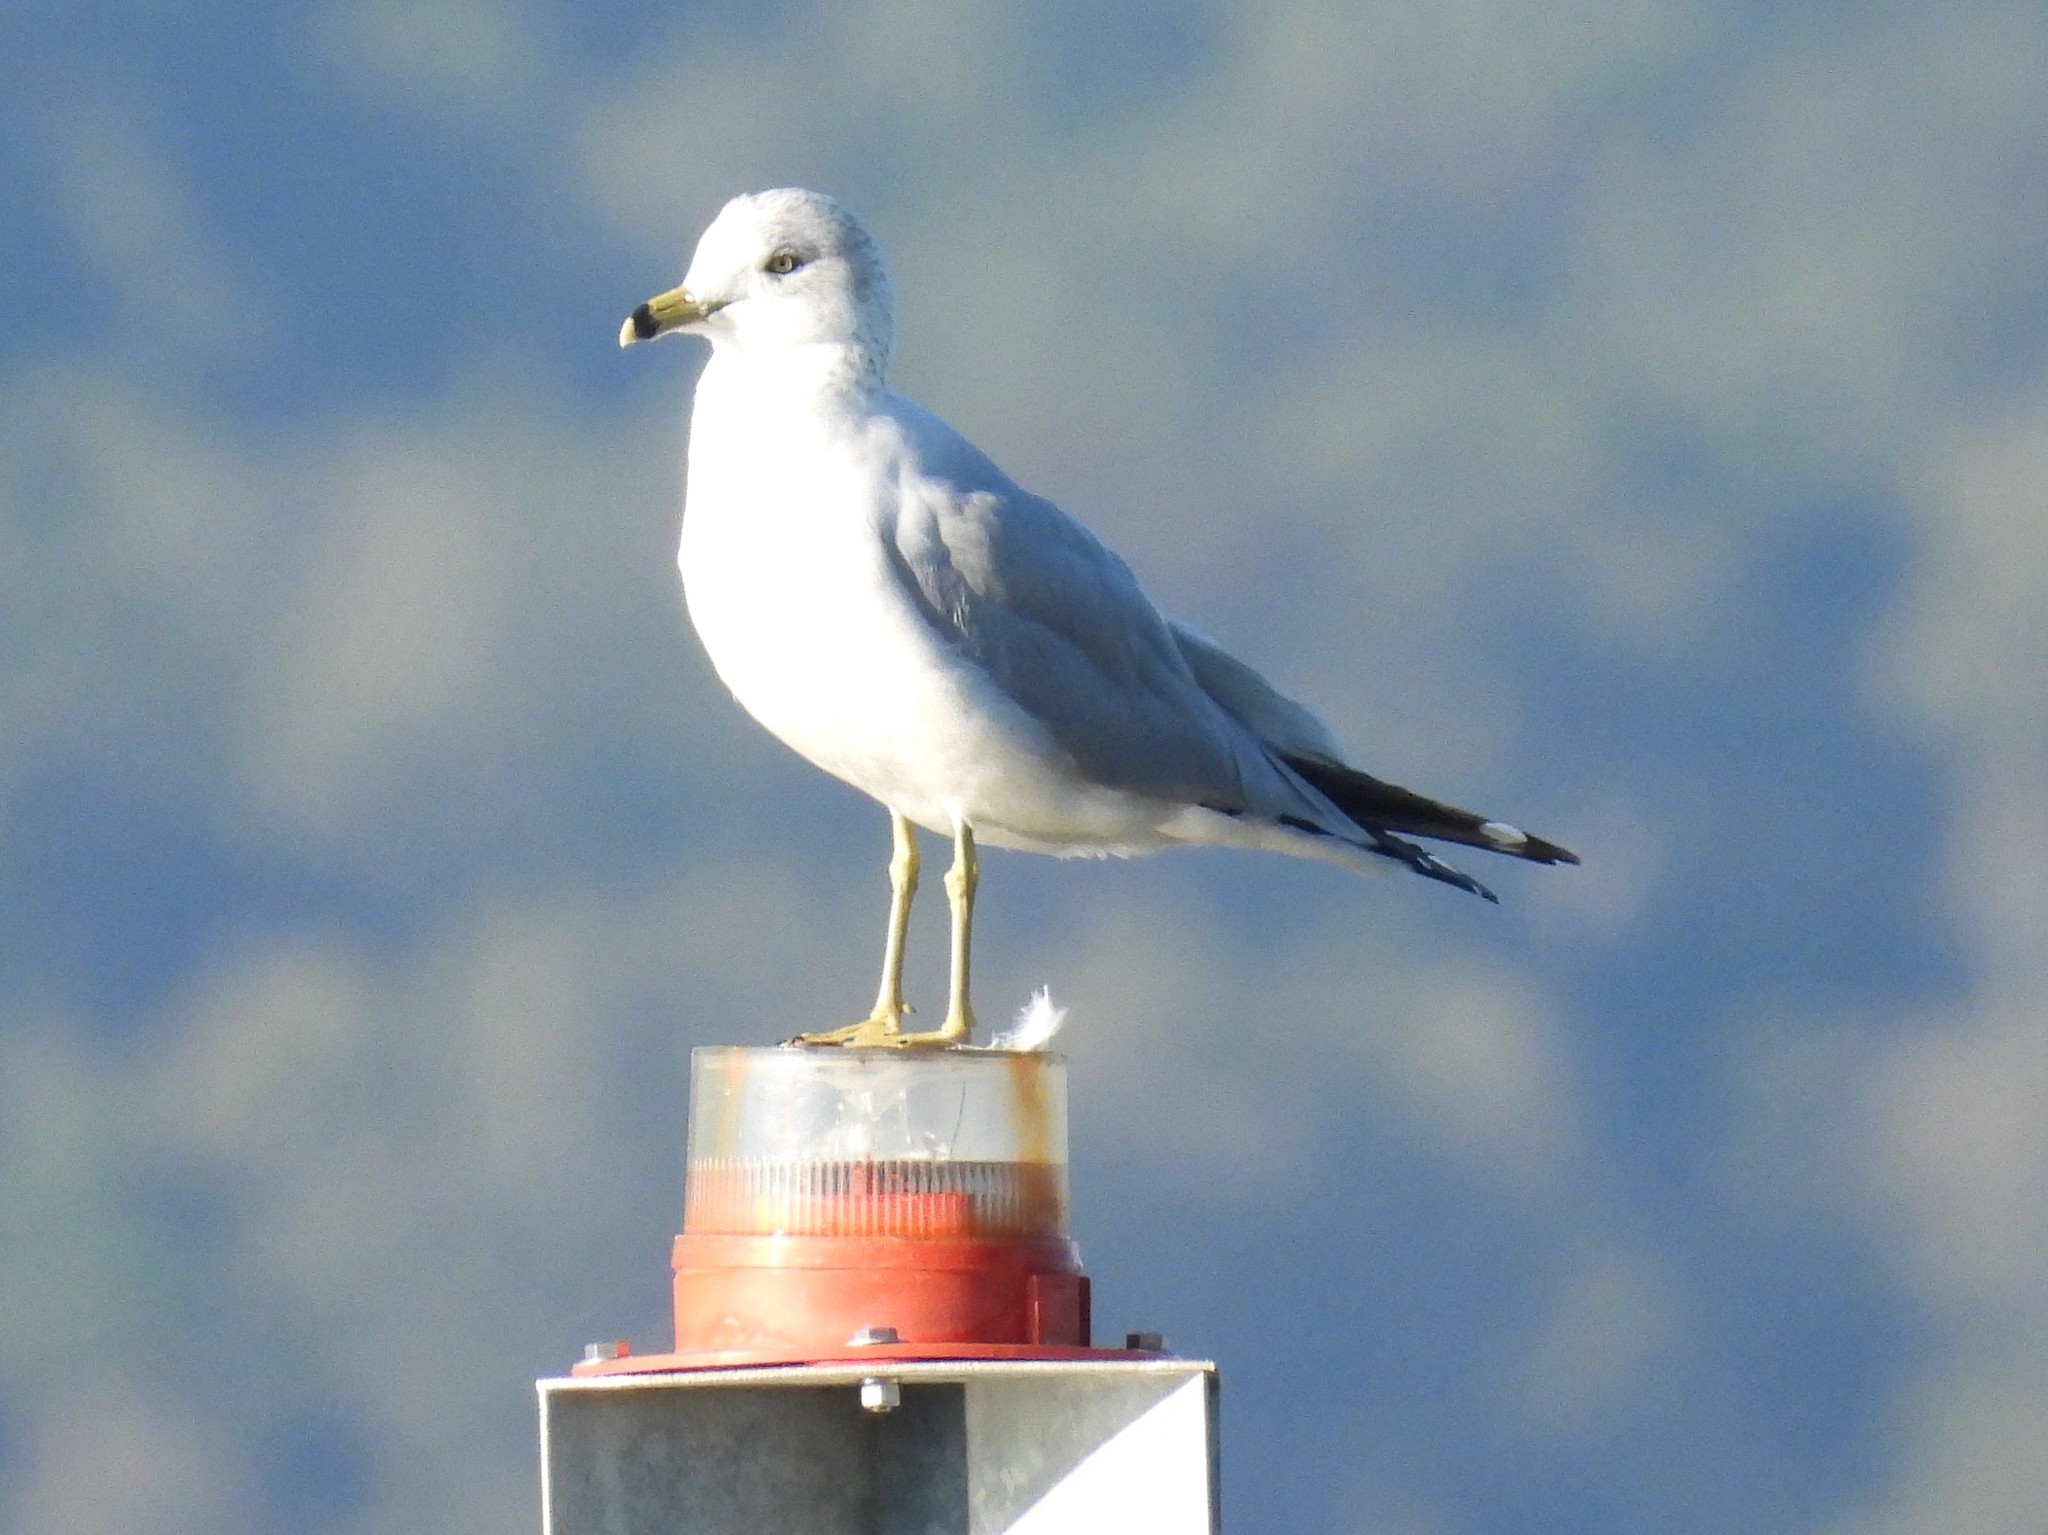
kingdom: Animalia
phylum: Chordata
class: Aves
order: Charadriiformes
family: Laridae
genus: Larus
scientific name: Larus delawarensis
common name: Ring-billed gull
